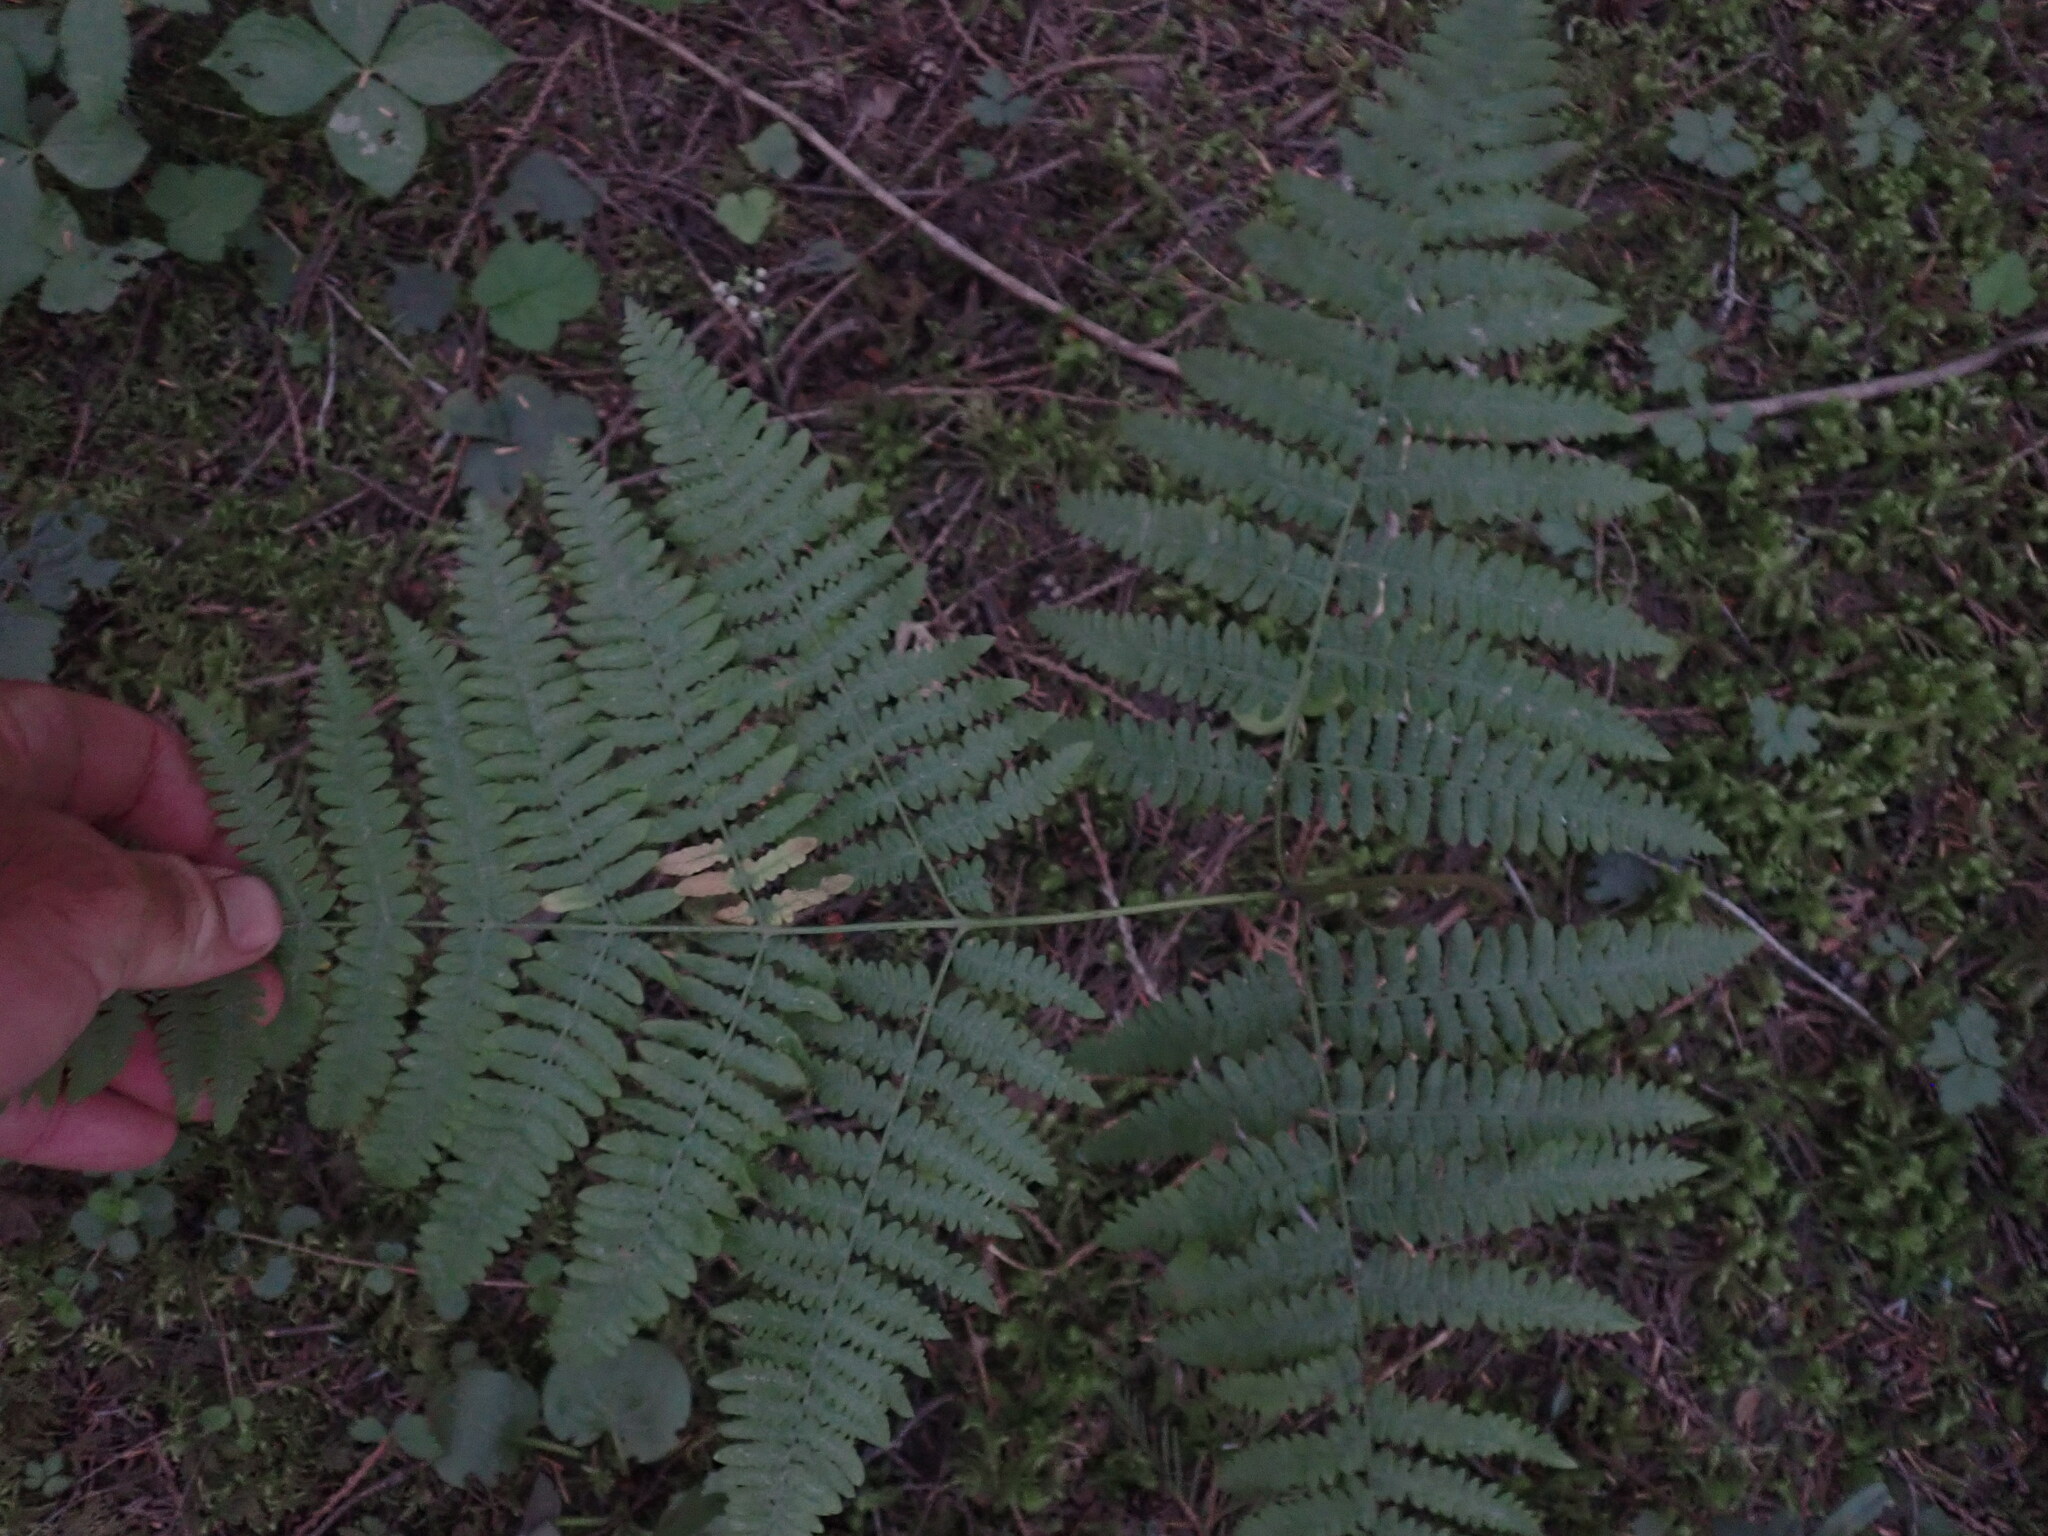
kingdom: Plantae
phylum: Tracheophyta
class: Polypodiopsida
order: Polypodiales
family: Dennstaedtiaceae
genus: Pteridium
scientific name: Pteridium aquilinum
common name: Bracken
